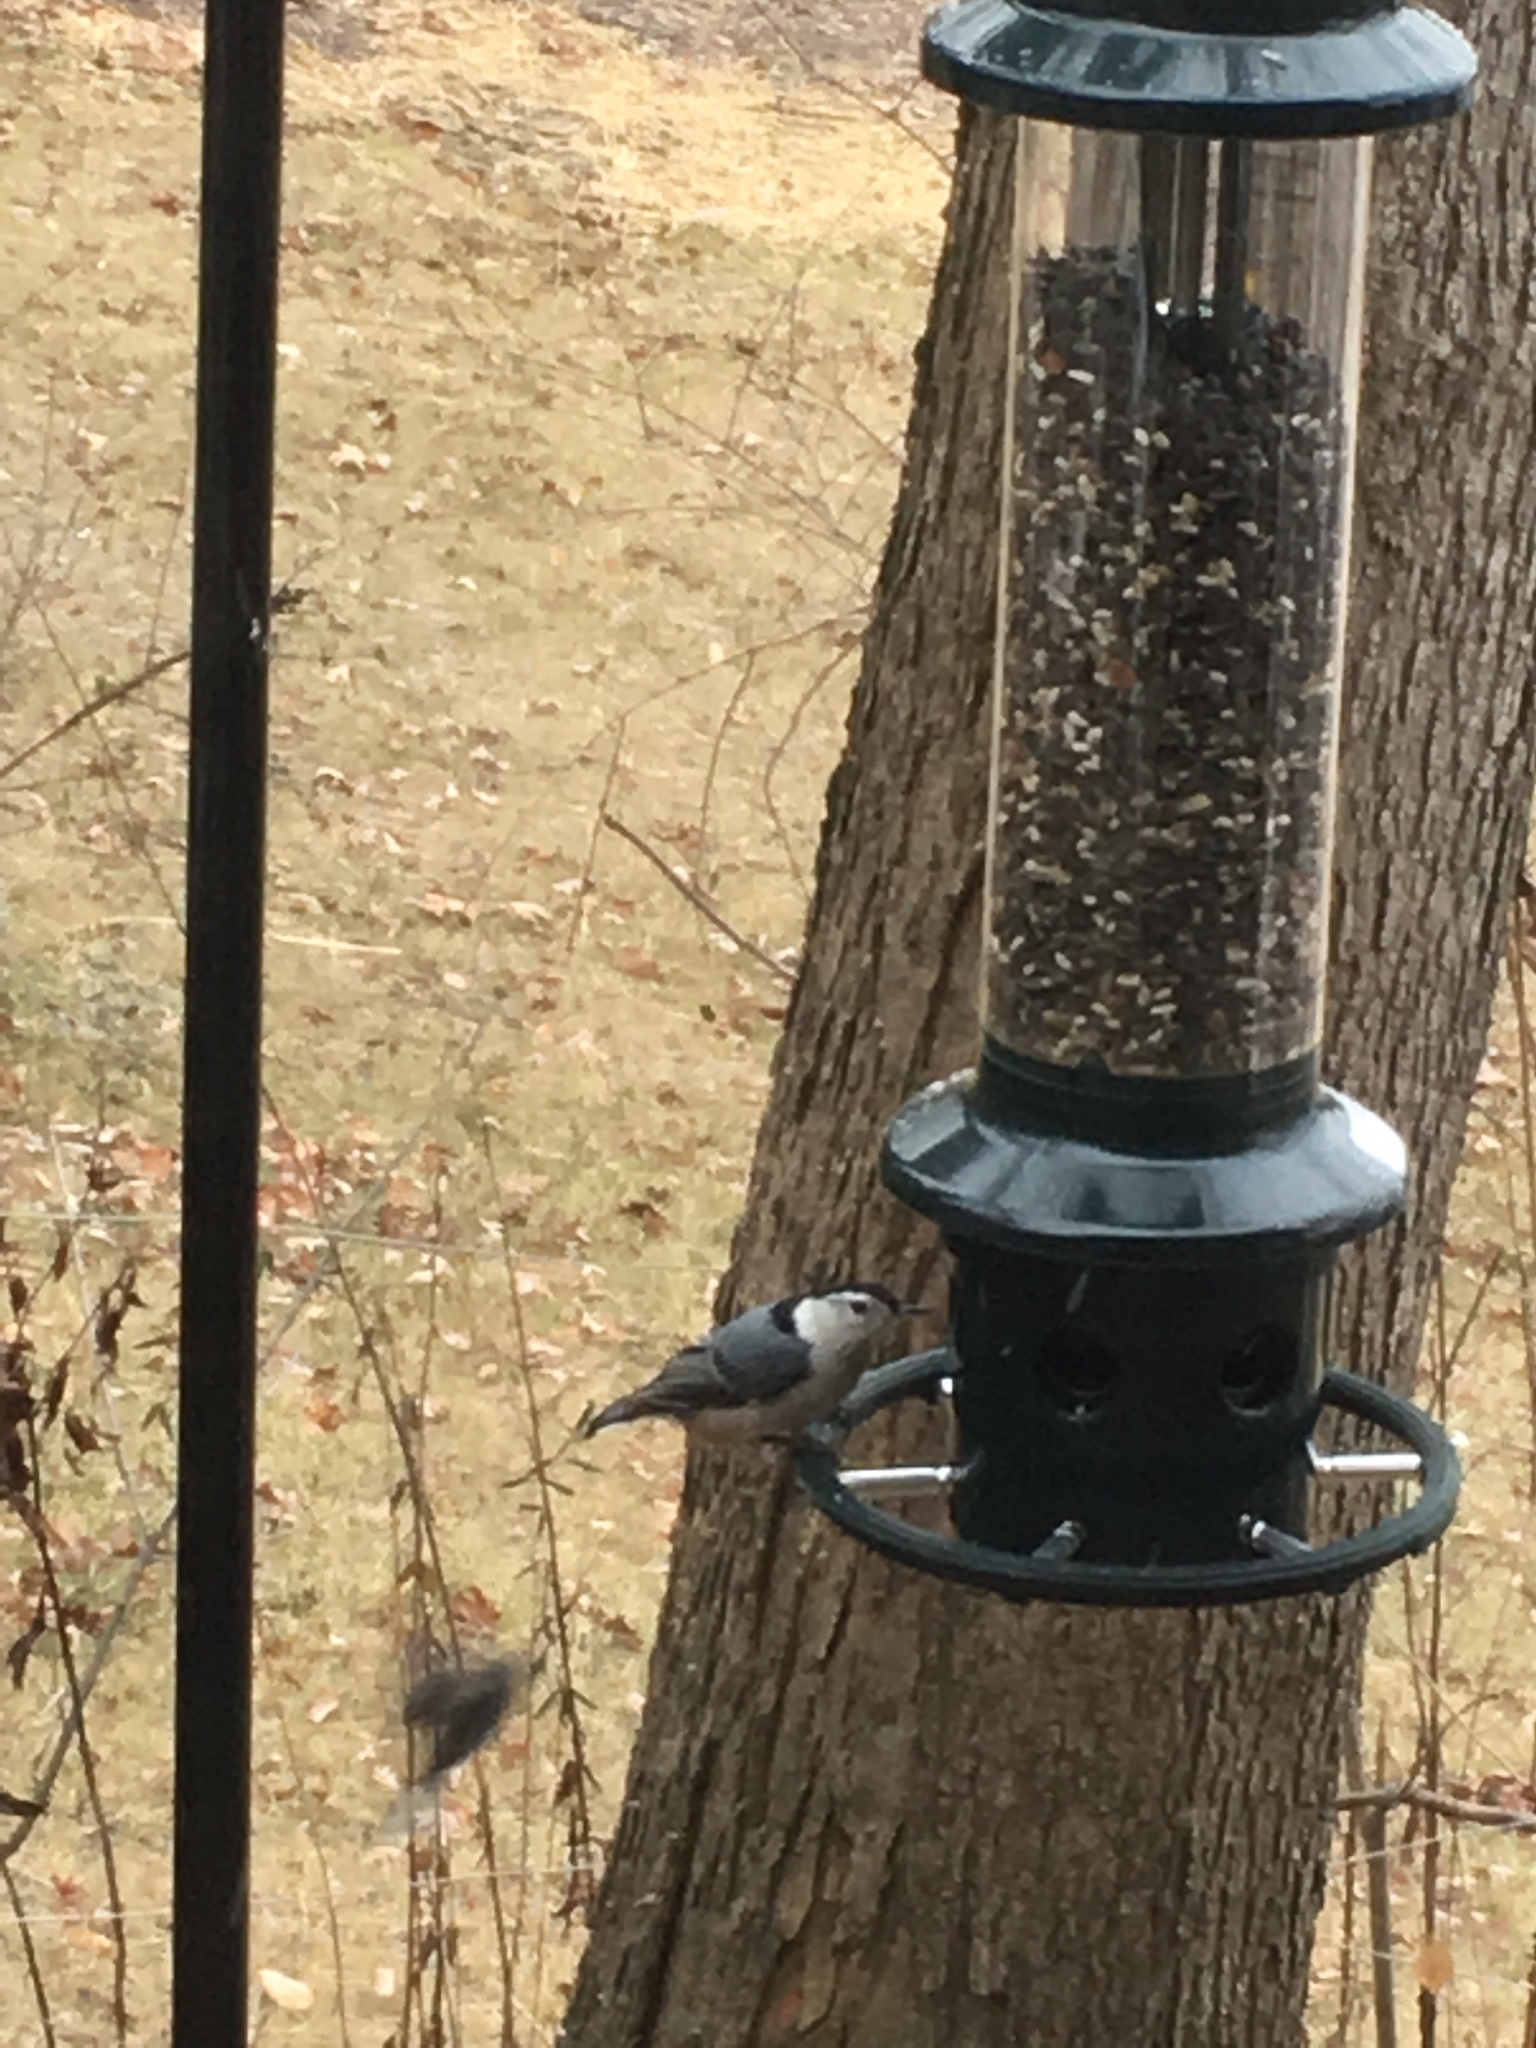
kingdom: Animalia
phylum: Chordata
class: Aves
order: Passeriformes
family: Sittidae
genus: Sitta
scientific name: Sitta carolinensis
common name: White-breasted nuthatch
